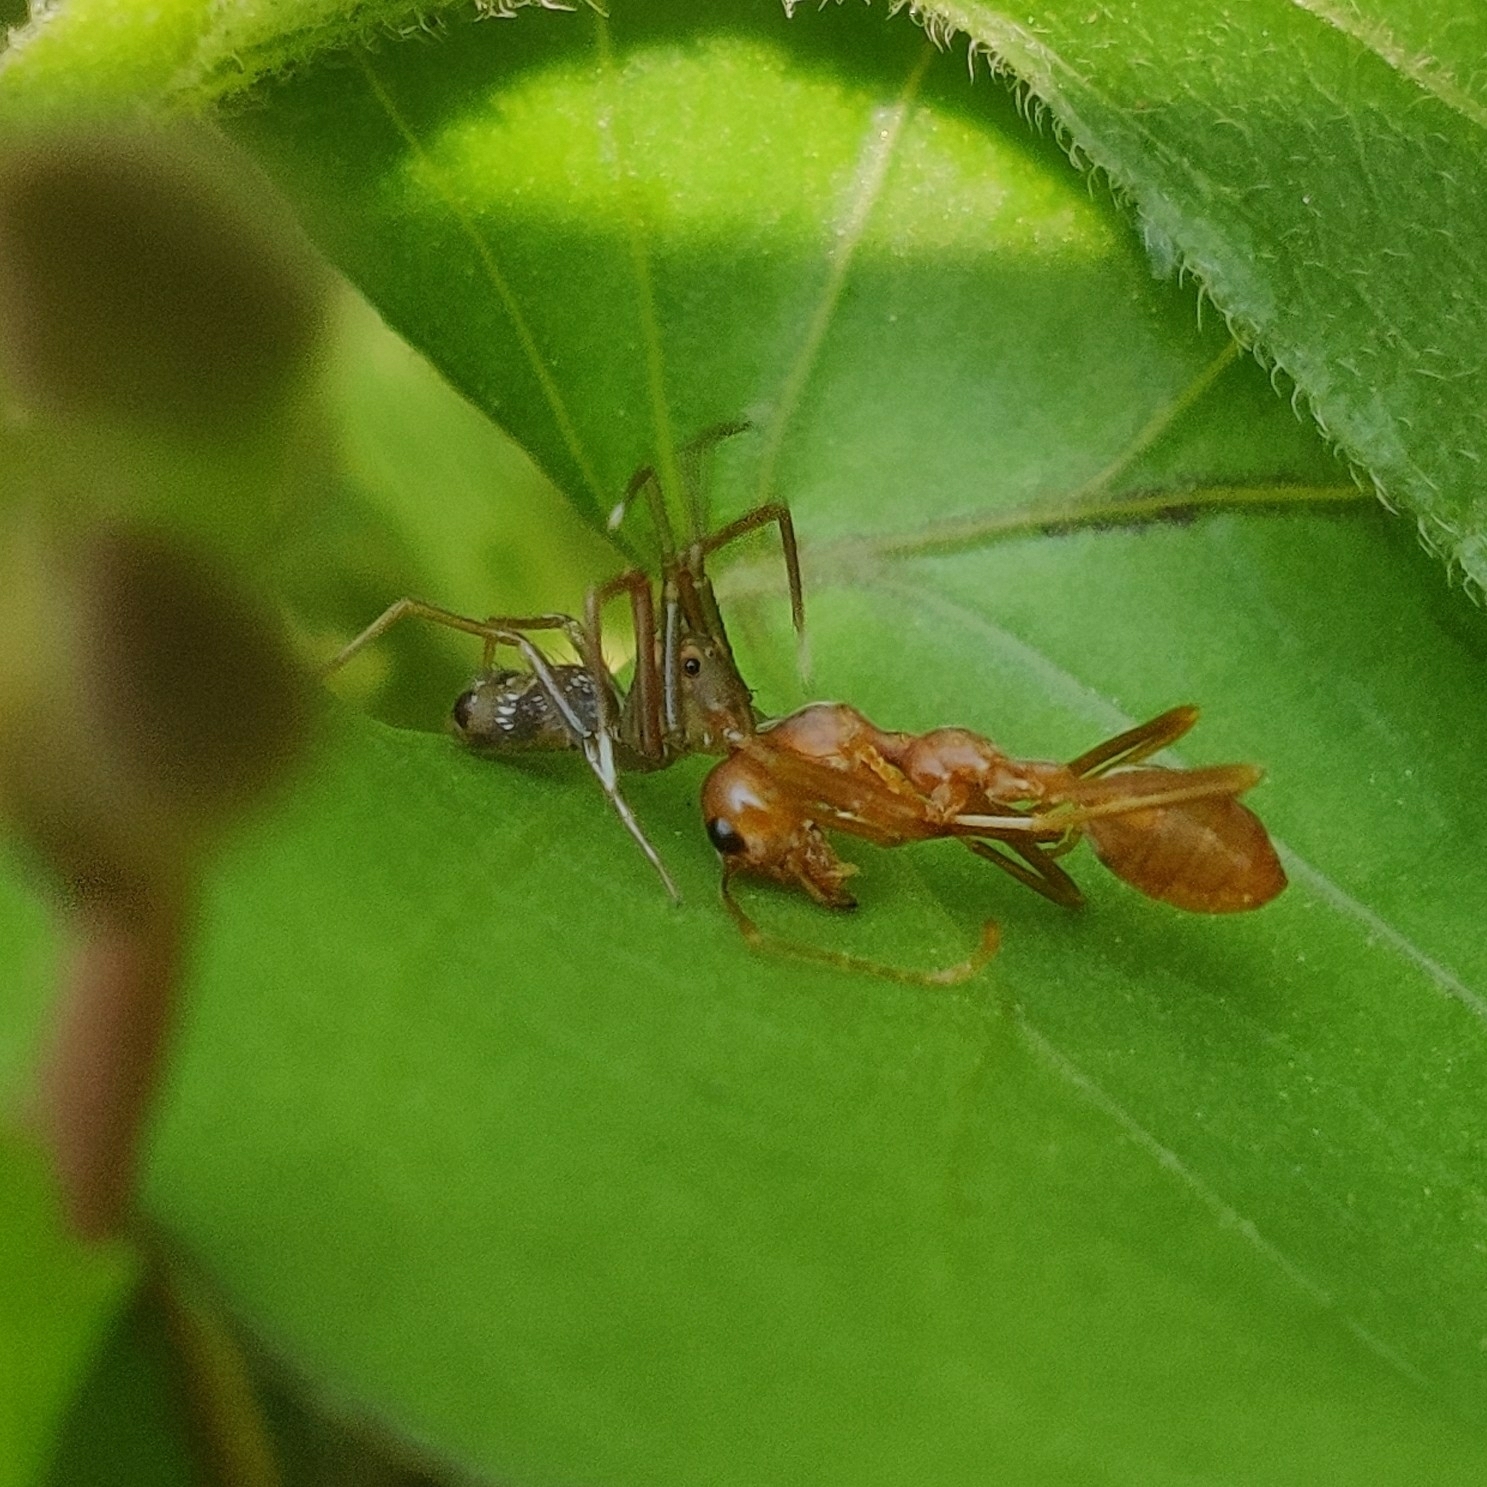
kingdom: Animalia
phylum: Arthropoda
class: Arachnida
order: Araneae
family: Thomisidae
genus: Amyciaea
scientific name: Amyciaea forticeps
